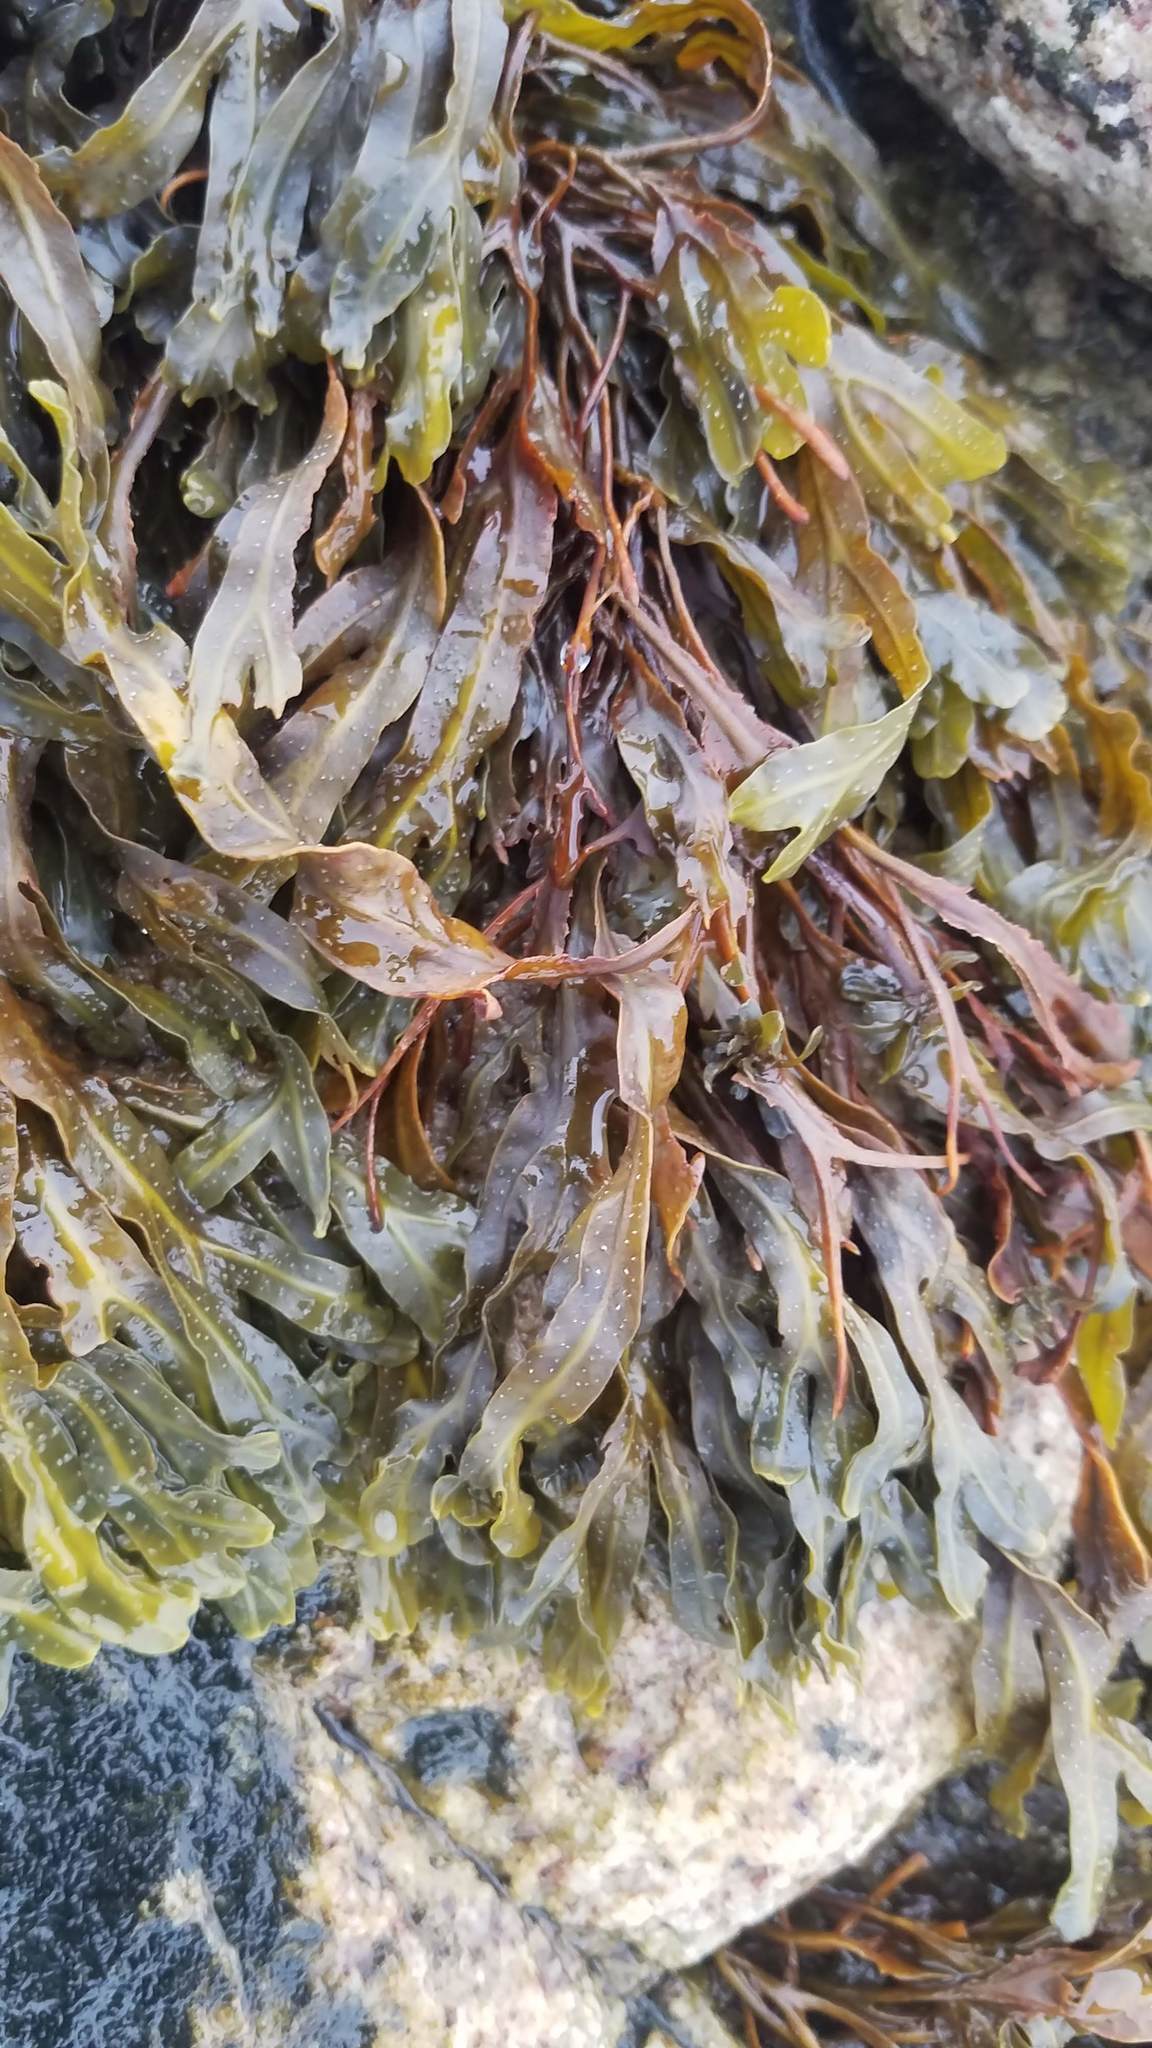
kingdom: Chromista
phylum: Ochrophyta
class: Phaeophyceae
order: Fucales
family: Fucaceae
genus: Fucus
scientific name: Fucus
